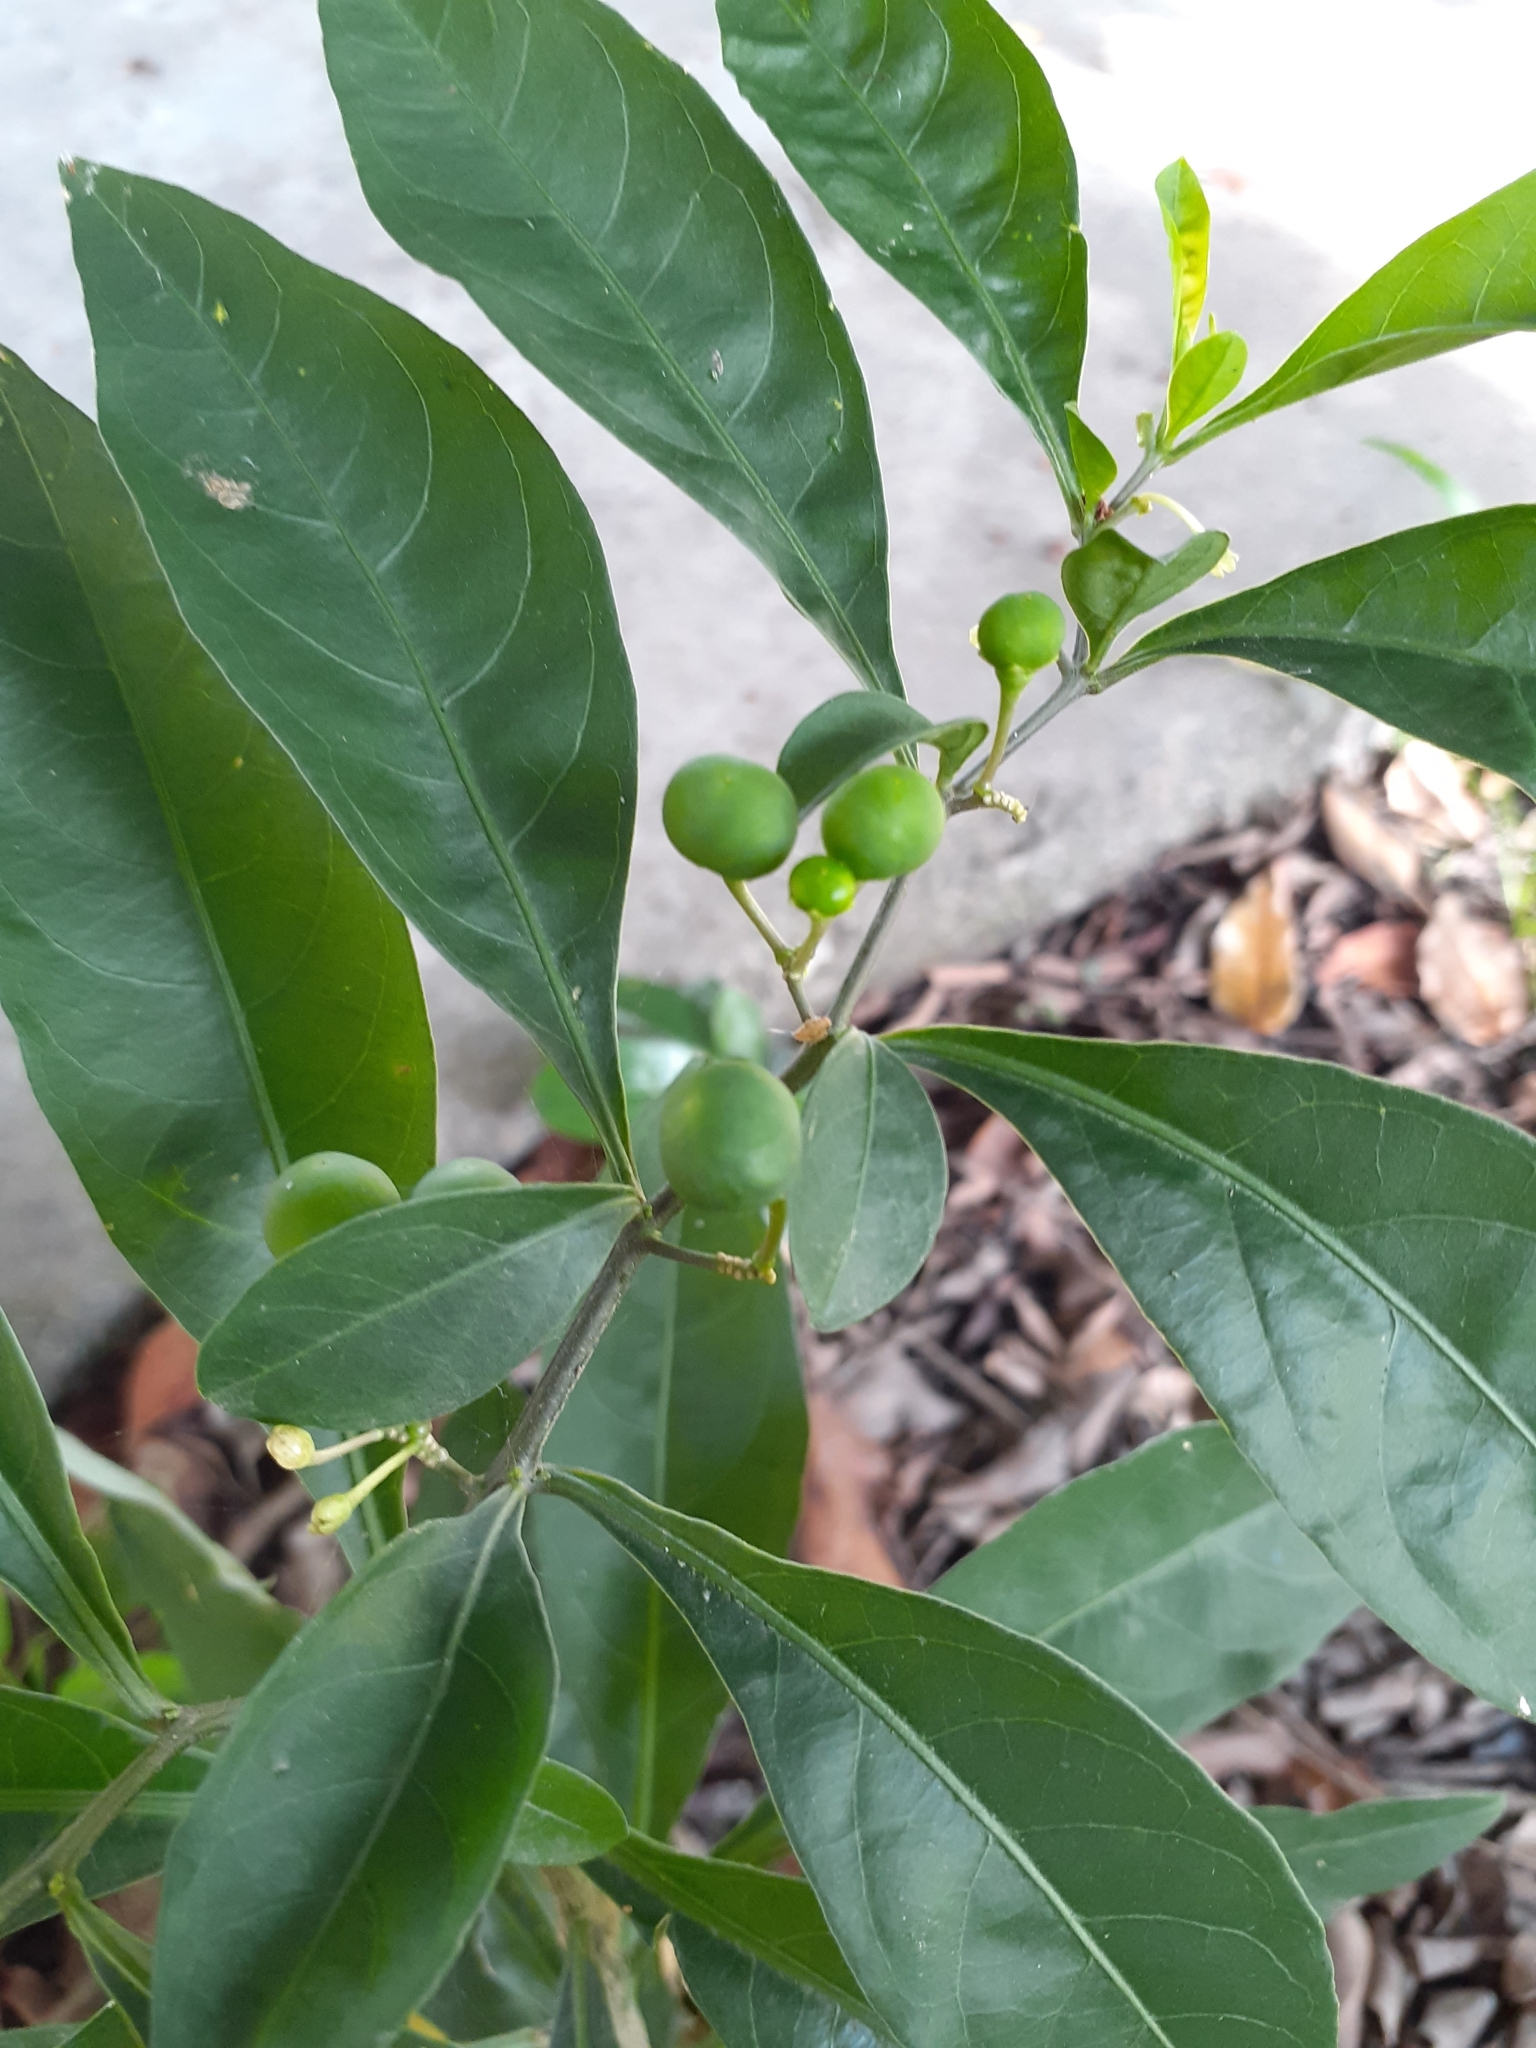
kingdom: Plantae
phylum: Tracheophyta
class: Magnoliopsida
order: Solanales
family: Solanaceae
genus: Solanum
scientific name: Solanum diphyllum
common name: Twoleaf nightshade
